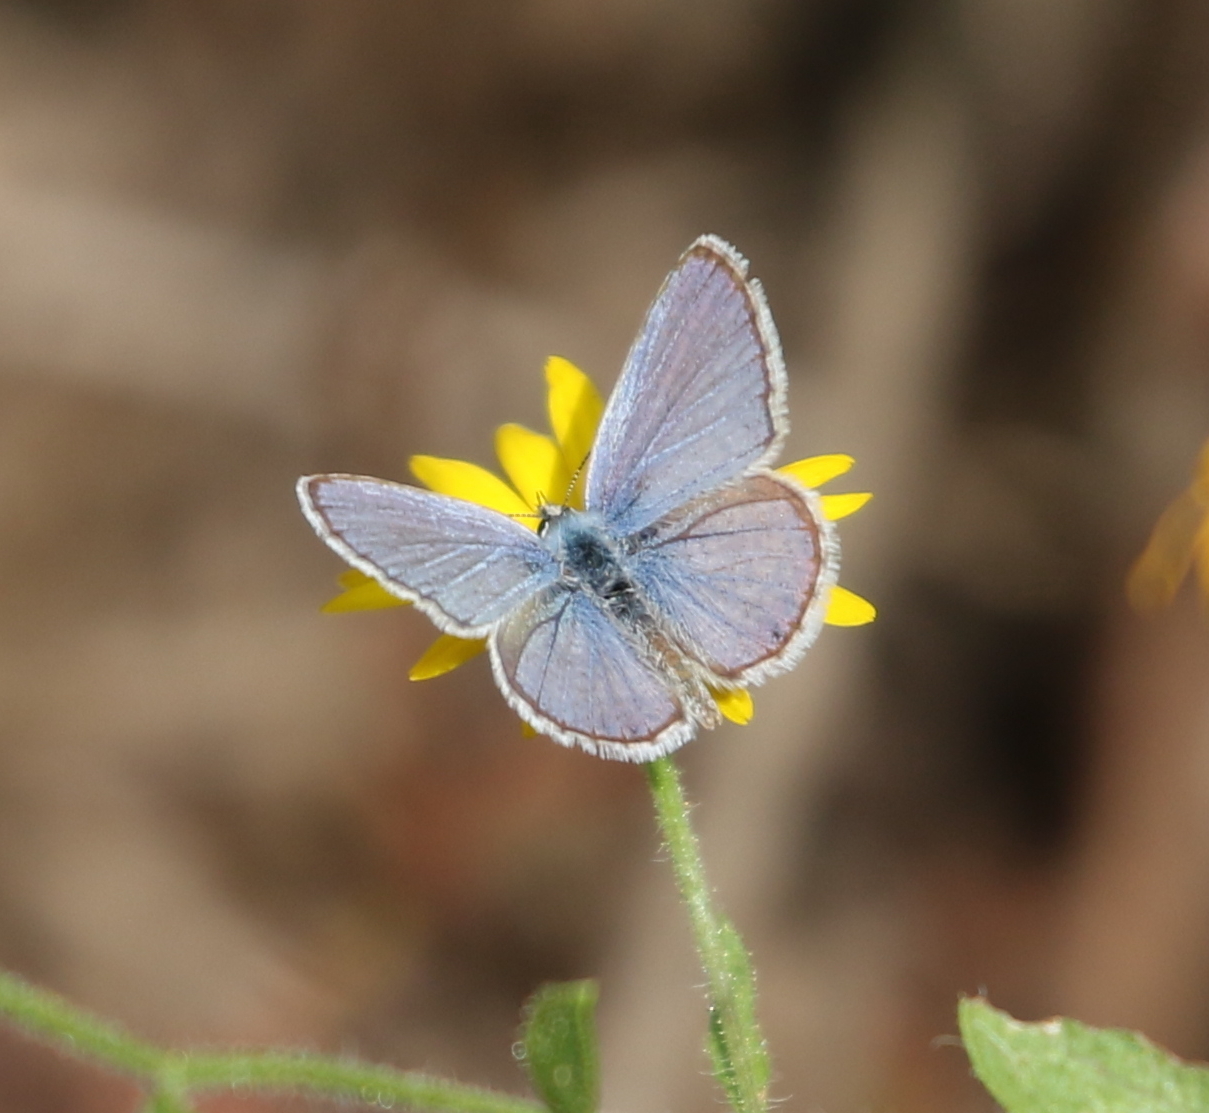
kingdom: Animalia
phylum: Arthropoda
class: Insecta
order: Lepidoptera
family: Lycaenidae
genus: Hemiargus
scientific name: Hemiargus ceraunus
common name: Ceraunus blue
